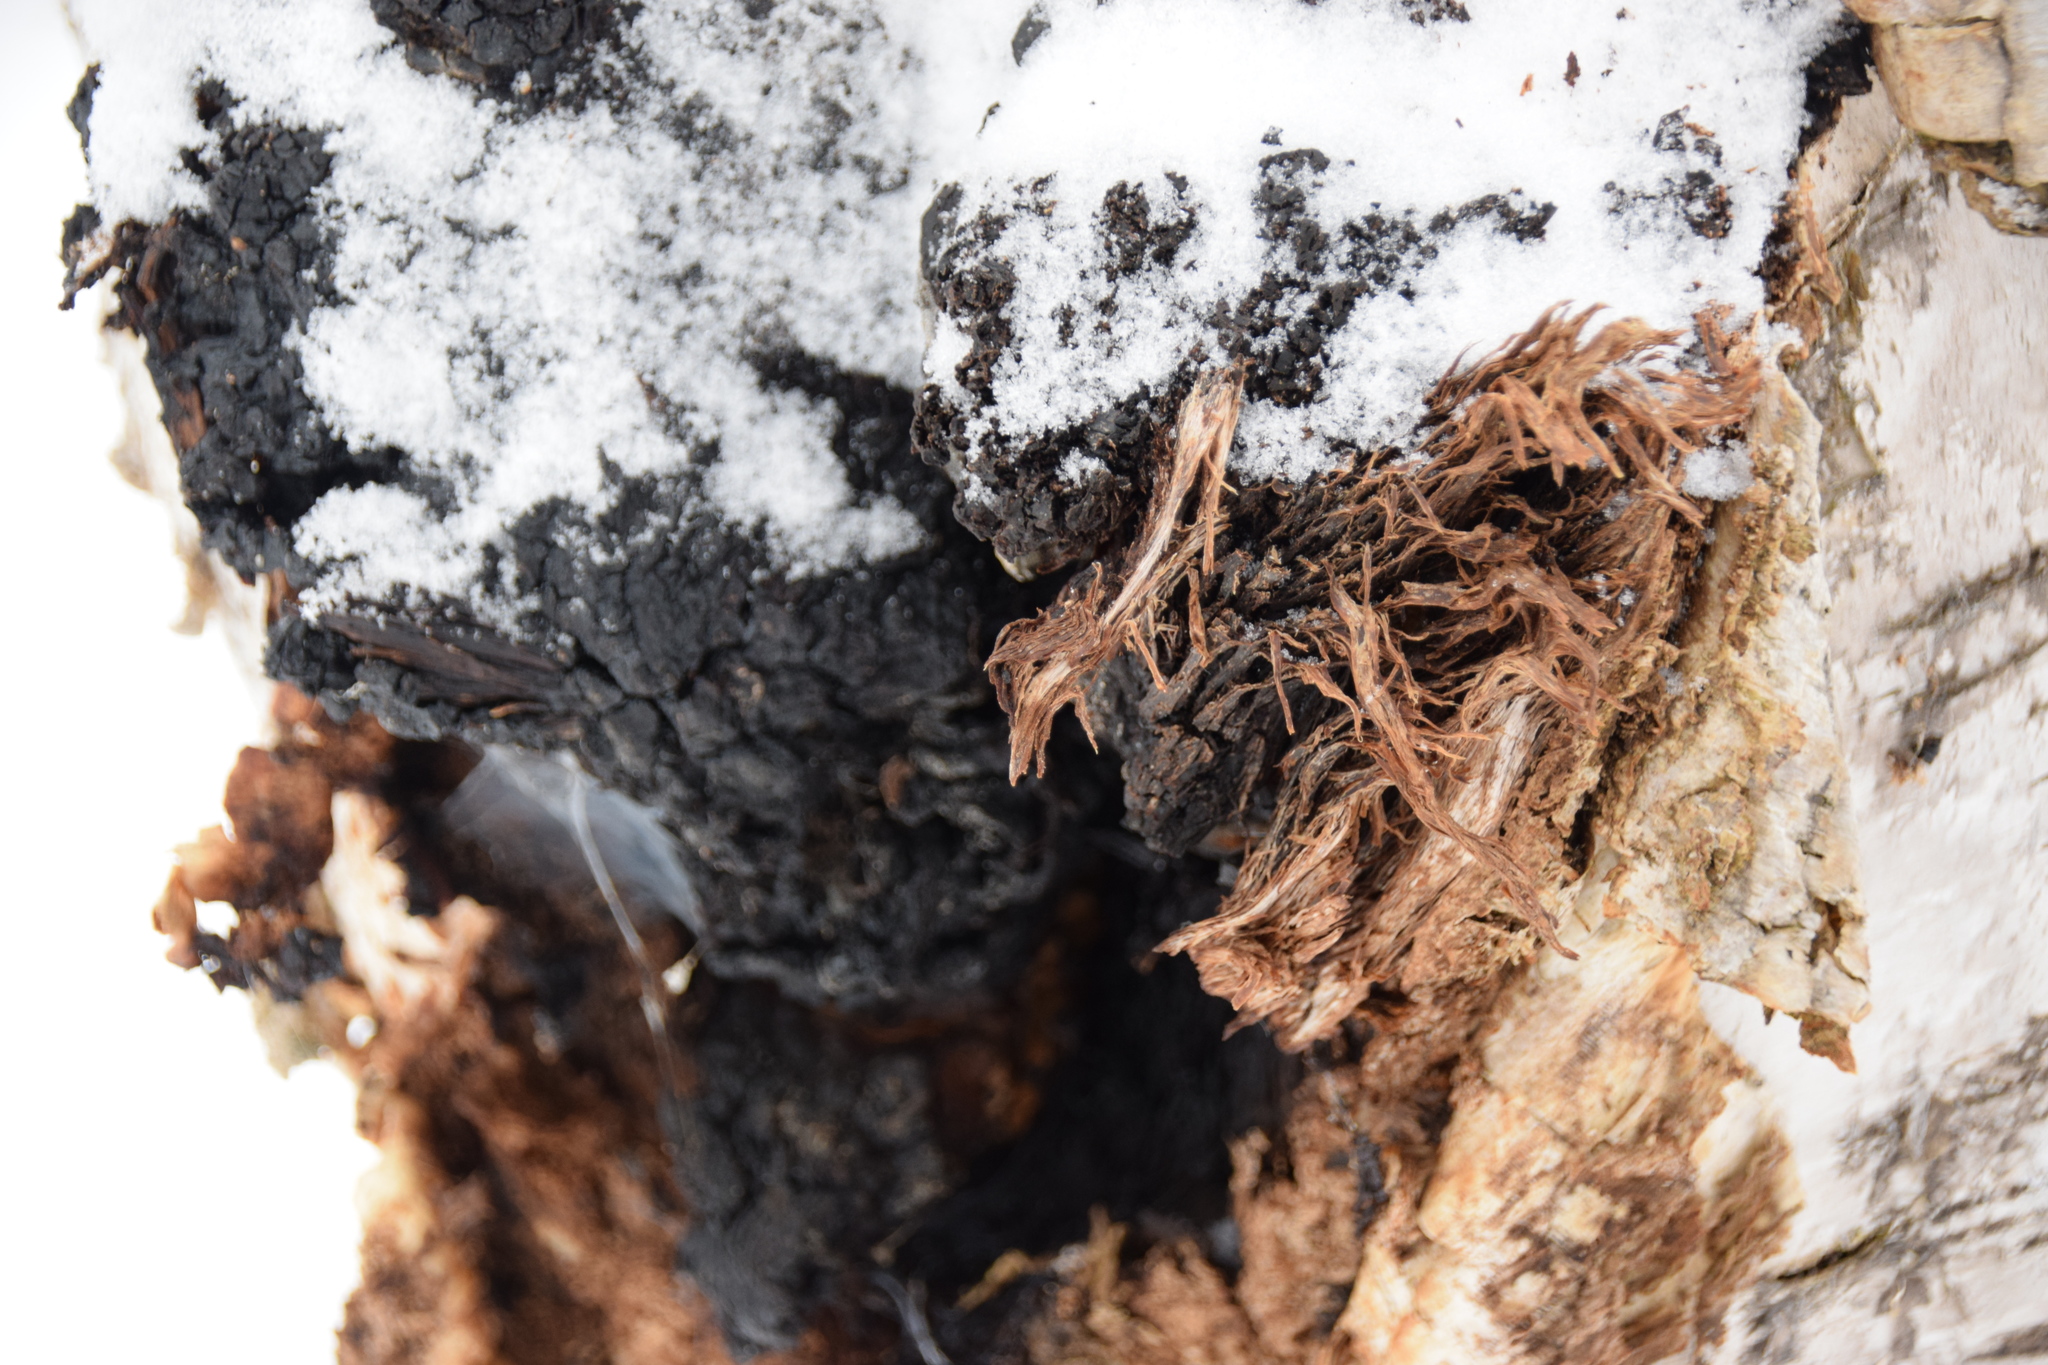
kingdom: Fungi
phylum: Basidiomycota
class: Agaricomycetes
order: Hymenochaetales
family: Hymenochaetaceae
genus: Inonotus
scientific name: Inonotus obliquus
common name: Chaga
